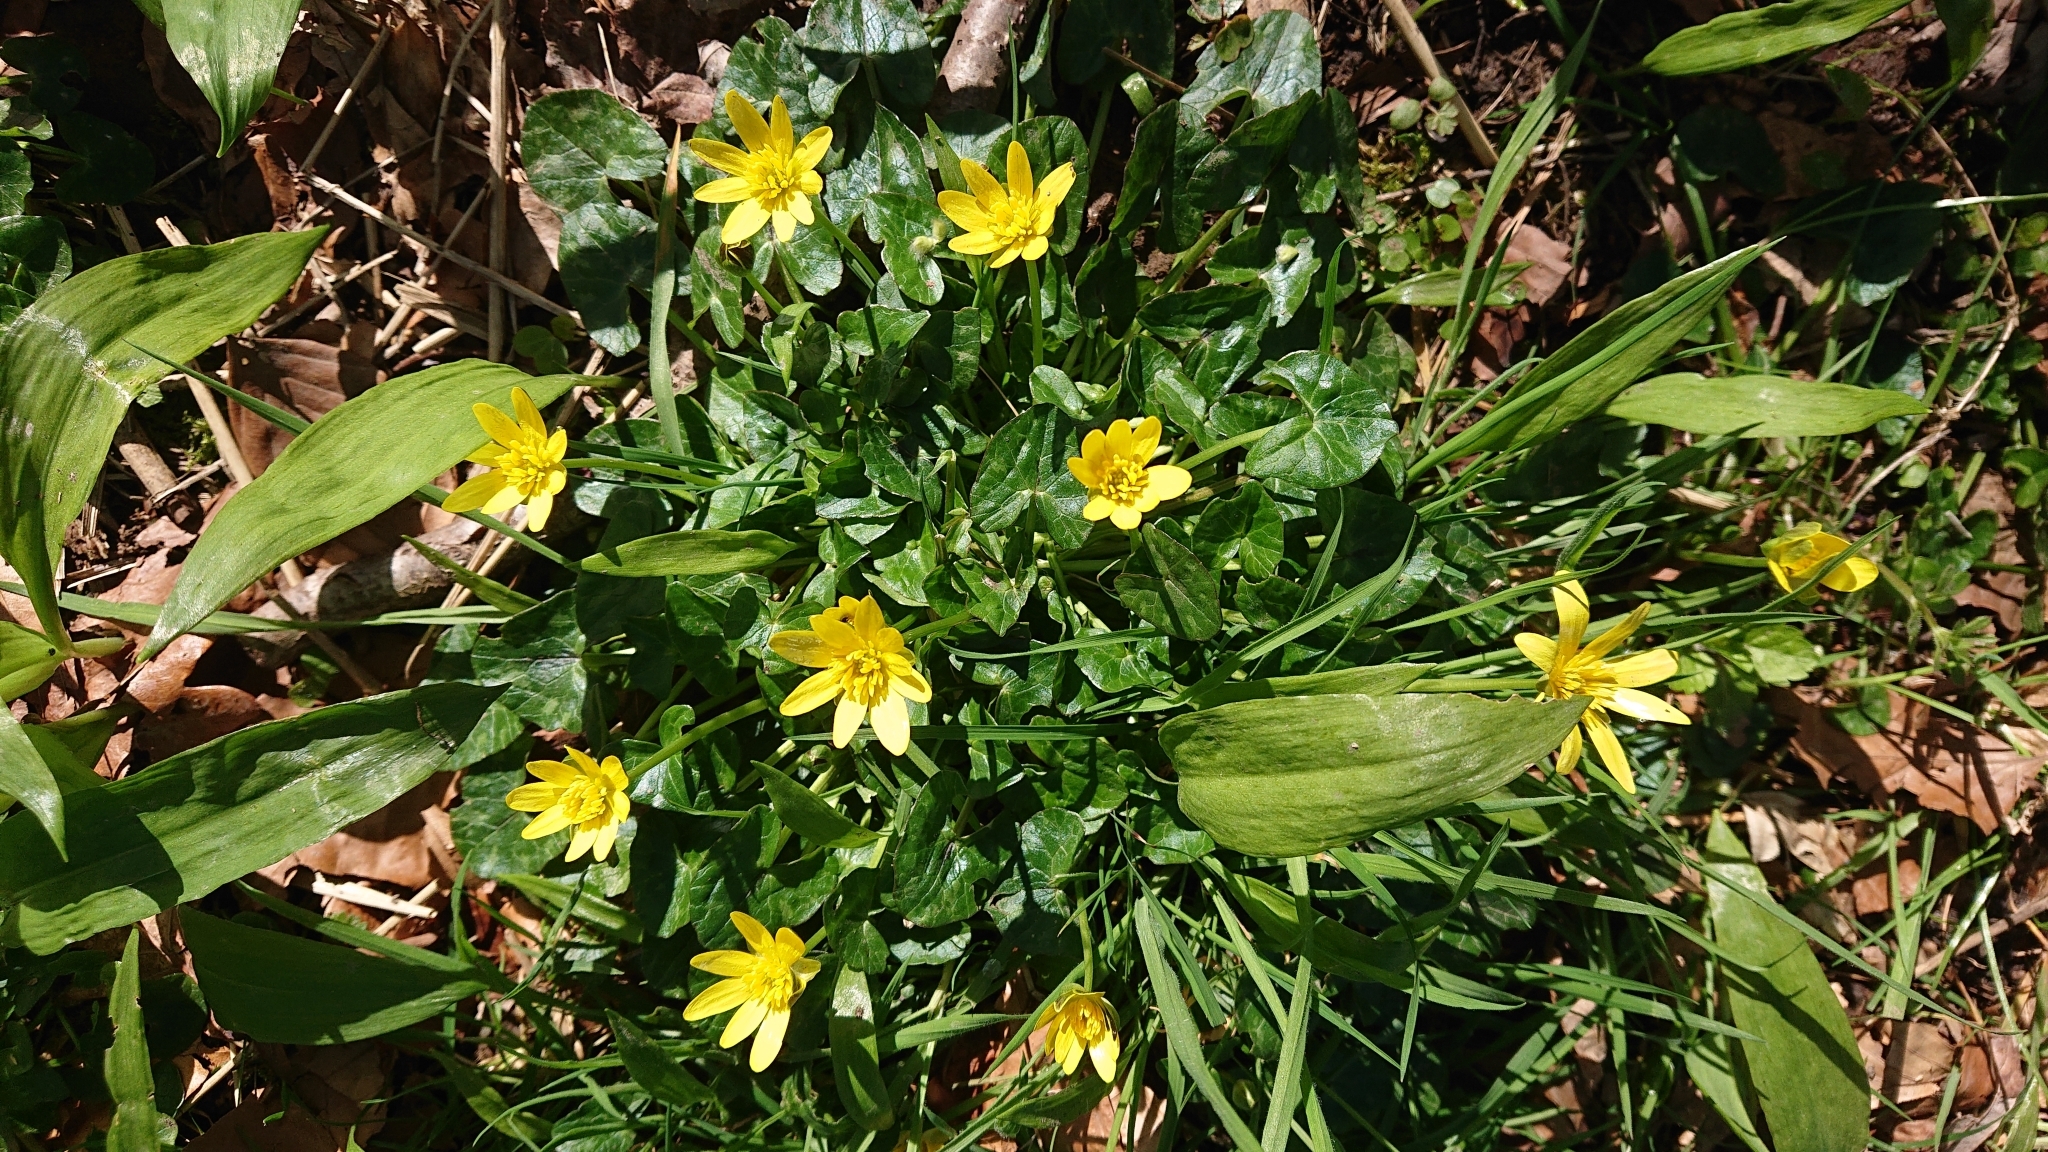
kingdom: Plantae
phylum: Tracheophyta
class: Magnoliopsida
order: Ranunculales
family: Ranunculaceae
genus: Ficaria
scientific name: Ficaria verna
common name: Lesser celandine
